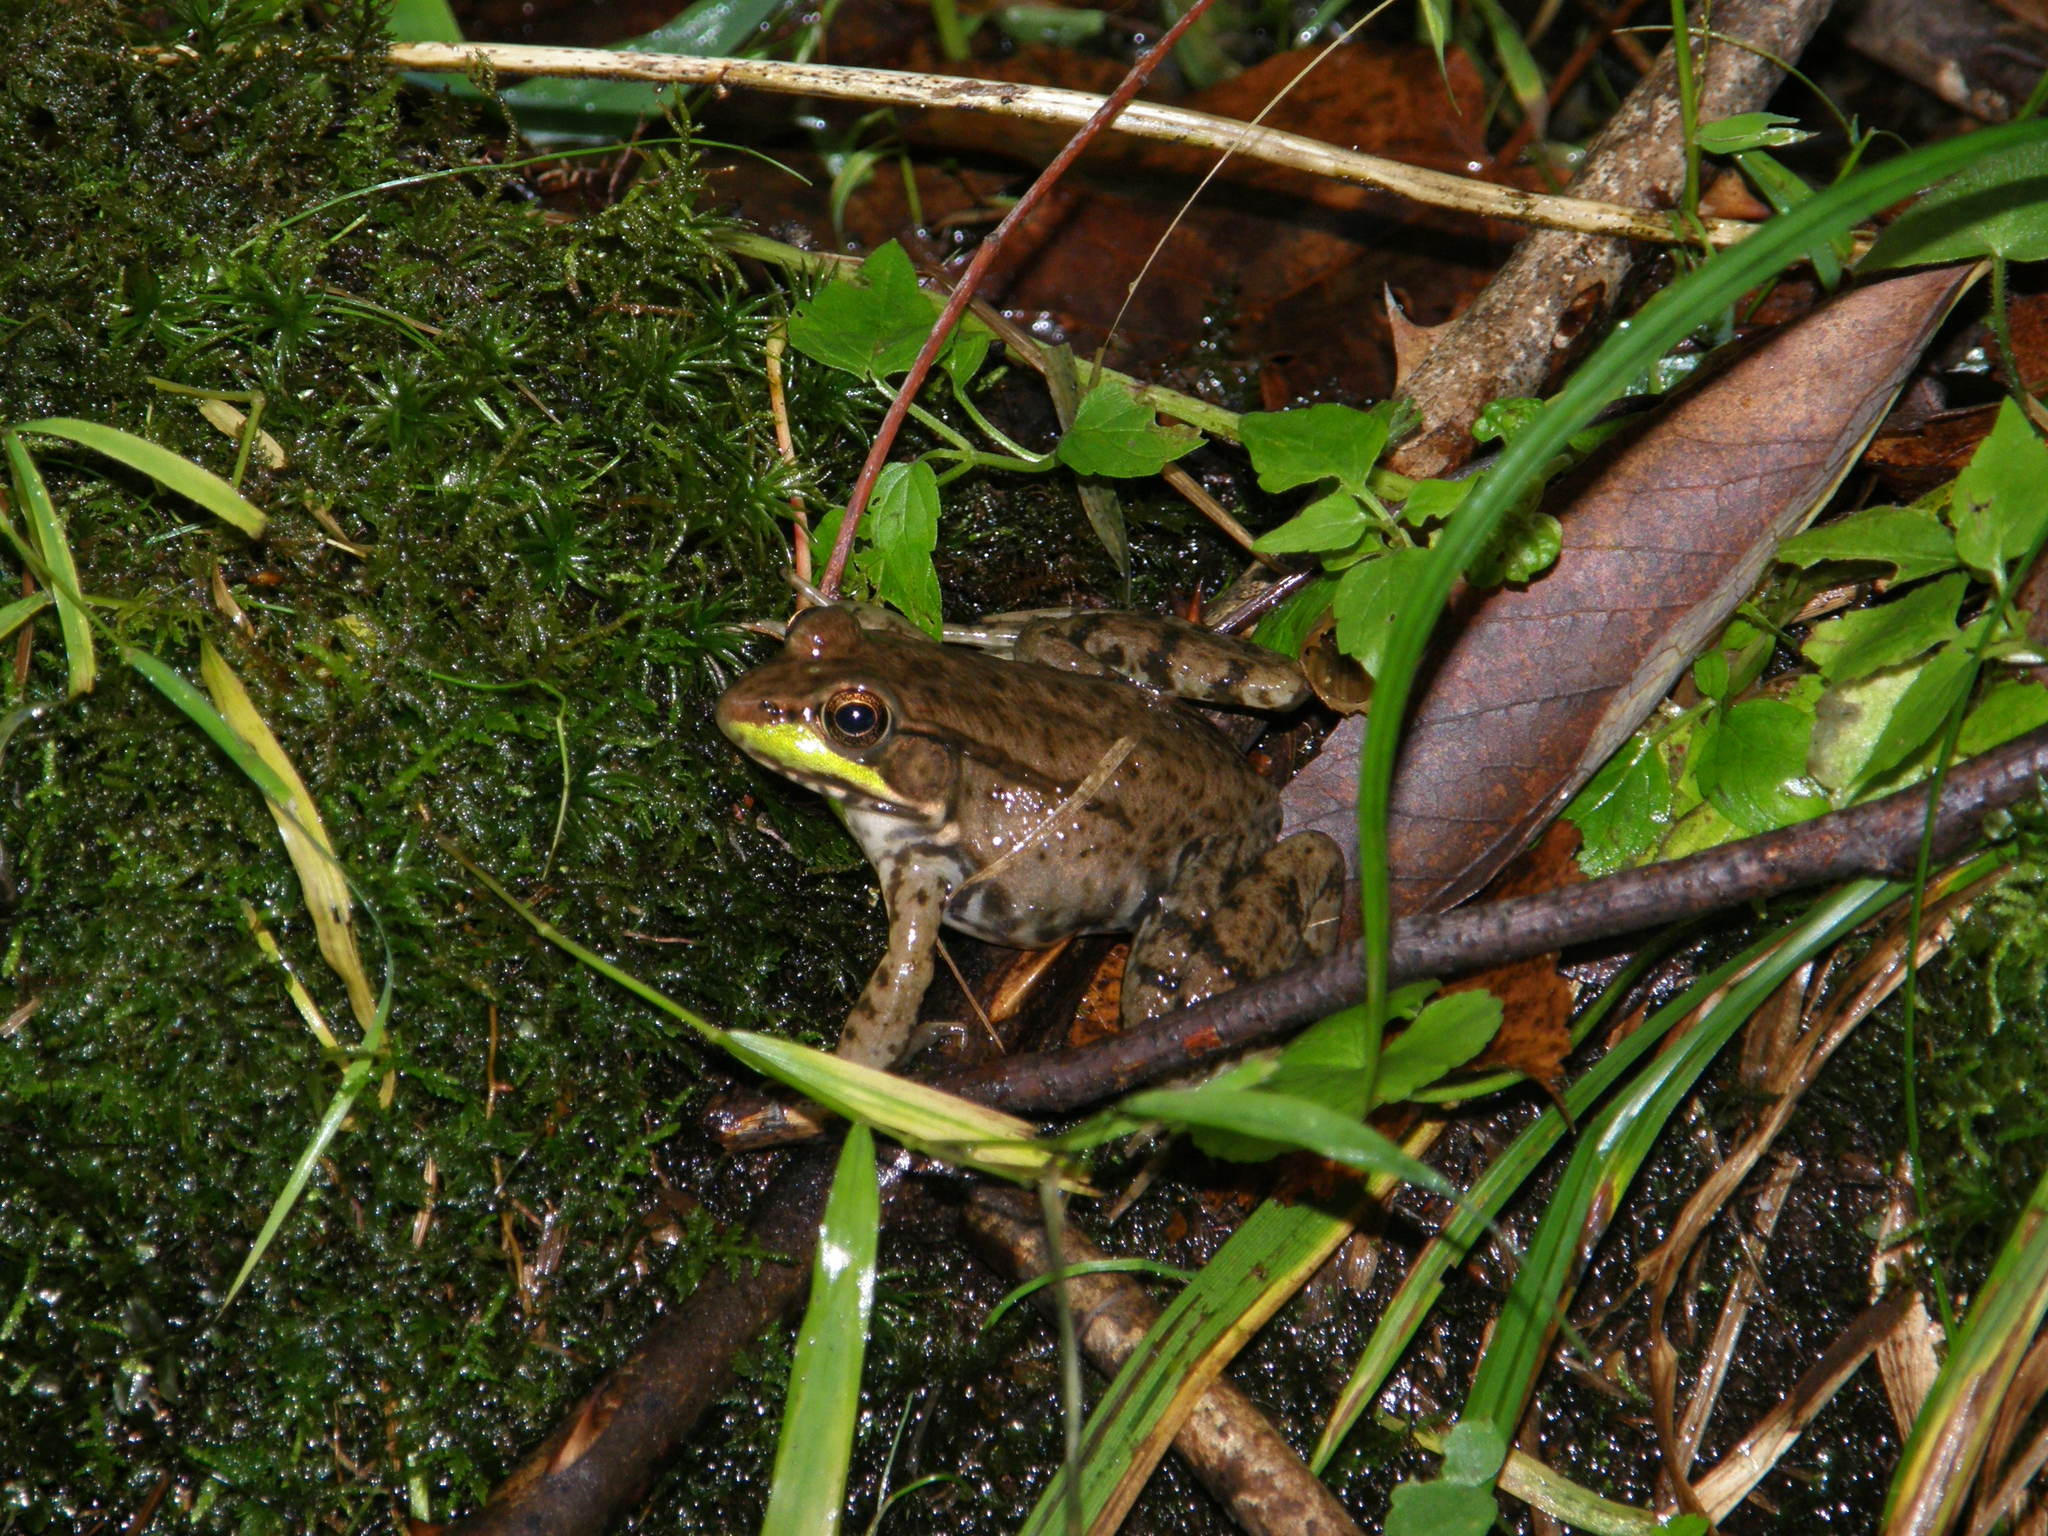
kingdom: Animalia
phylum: Chordata
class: Amphibia
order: Anura
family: Ranidae
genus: Lithobates
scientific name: Lithobates clamitans
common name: Green frog
